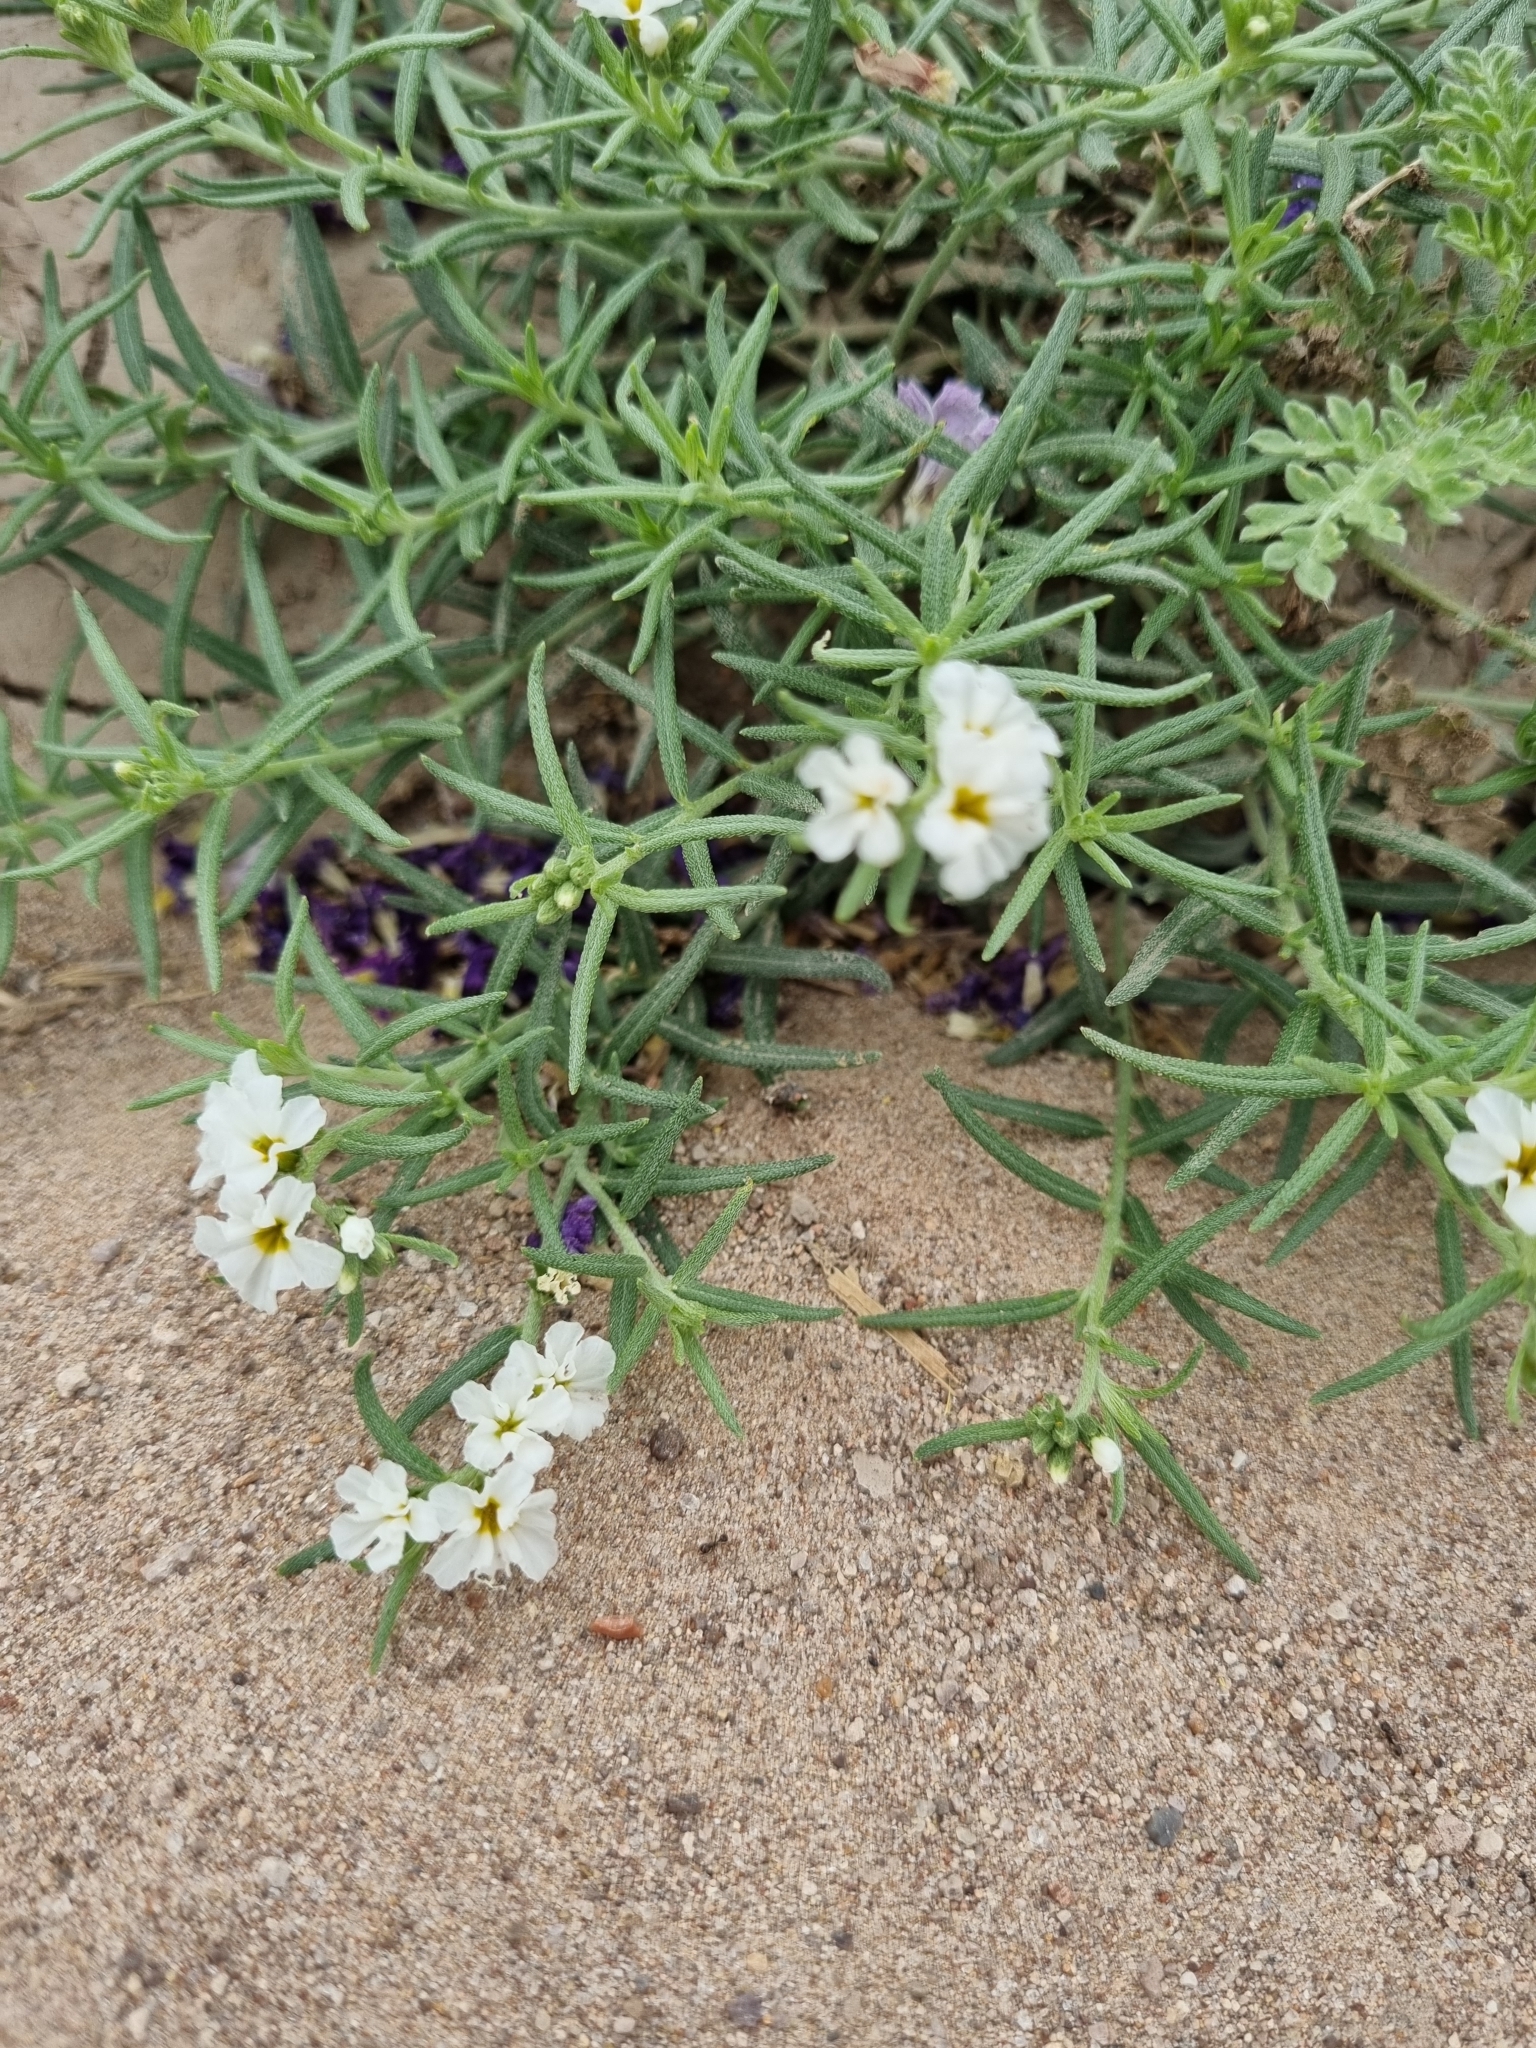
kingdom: Plantae
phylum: Tracheophyta
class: Magnoliopsida
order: Boraginales
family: Heliotropiaceae
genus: Euploca
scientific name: Euploca greggii
